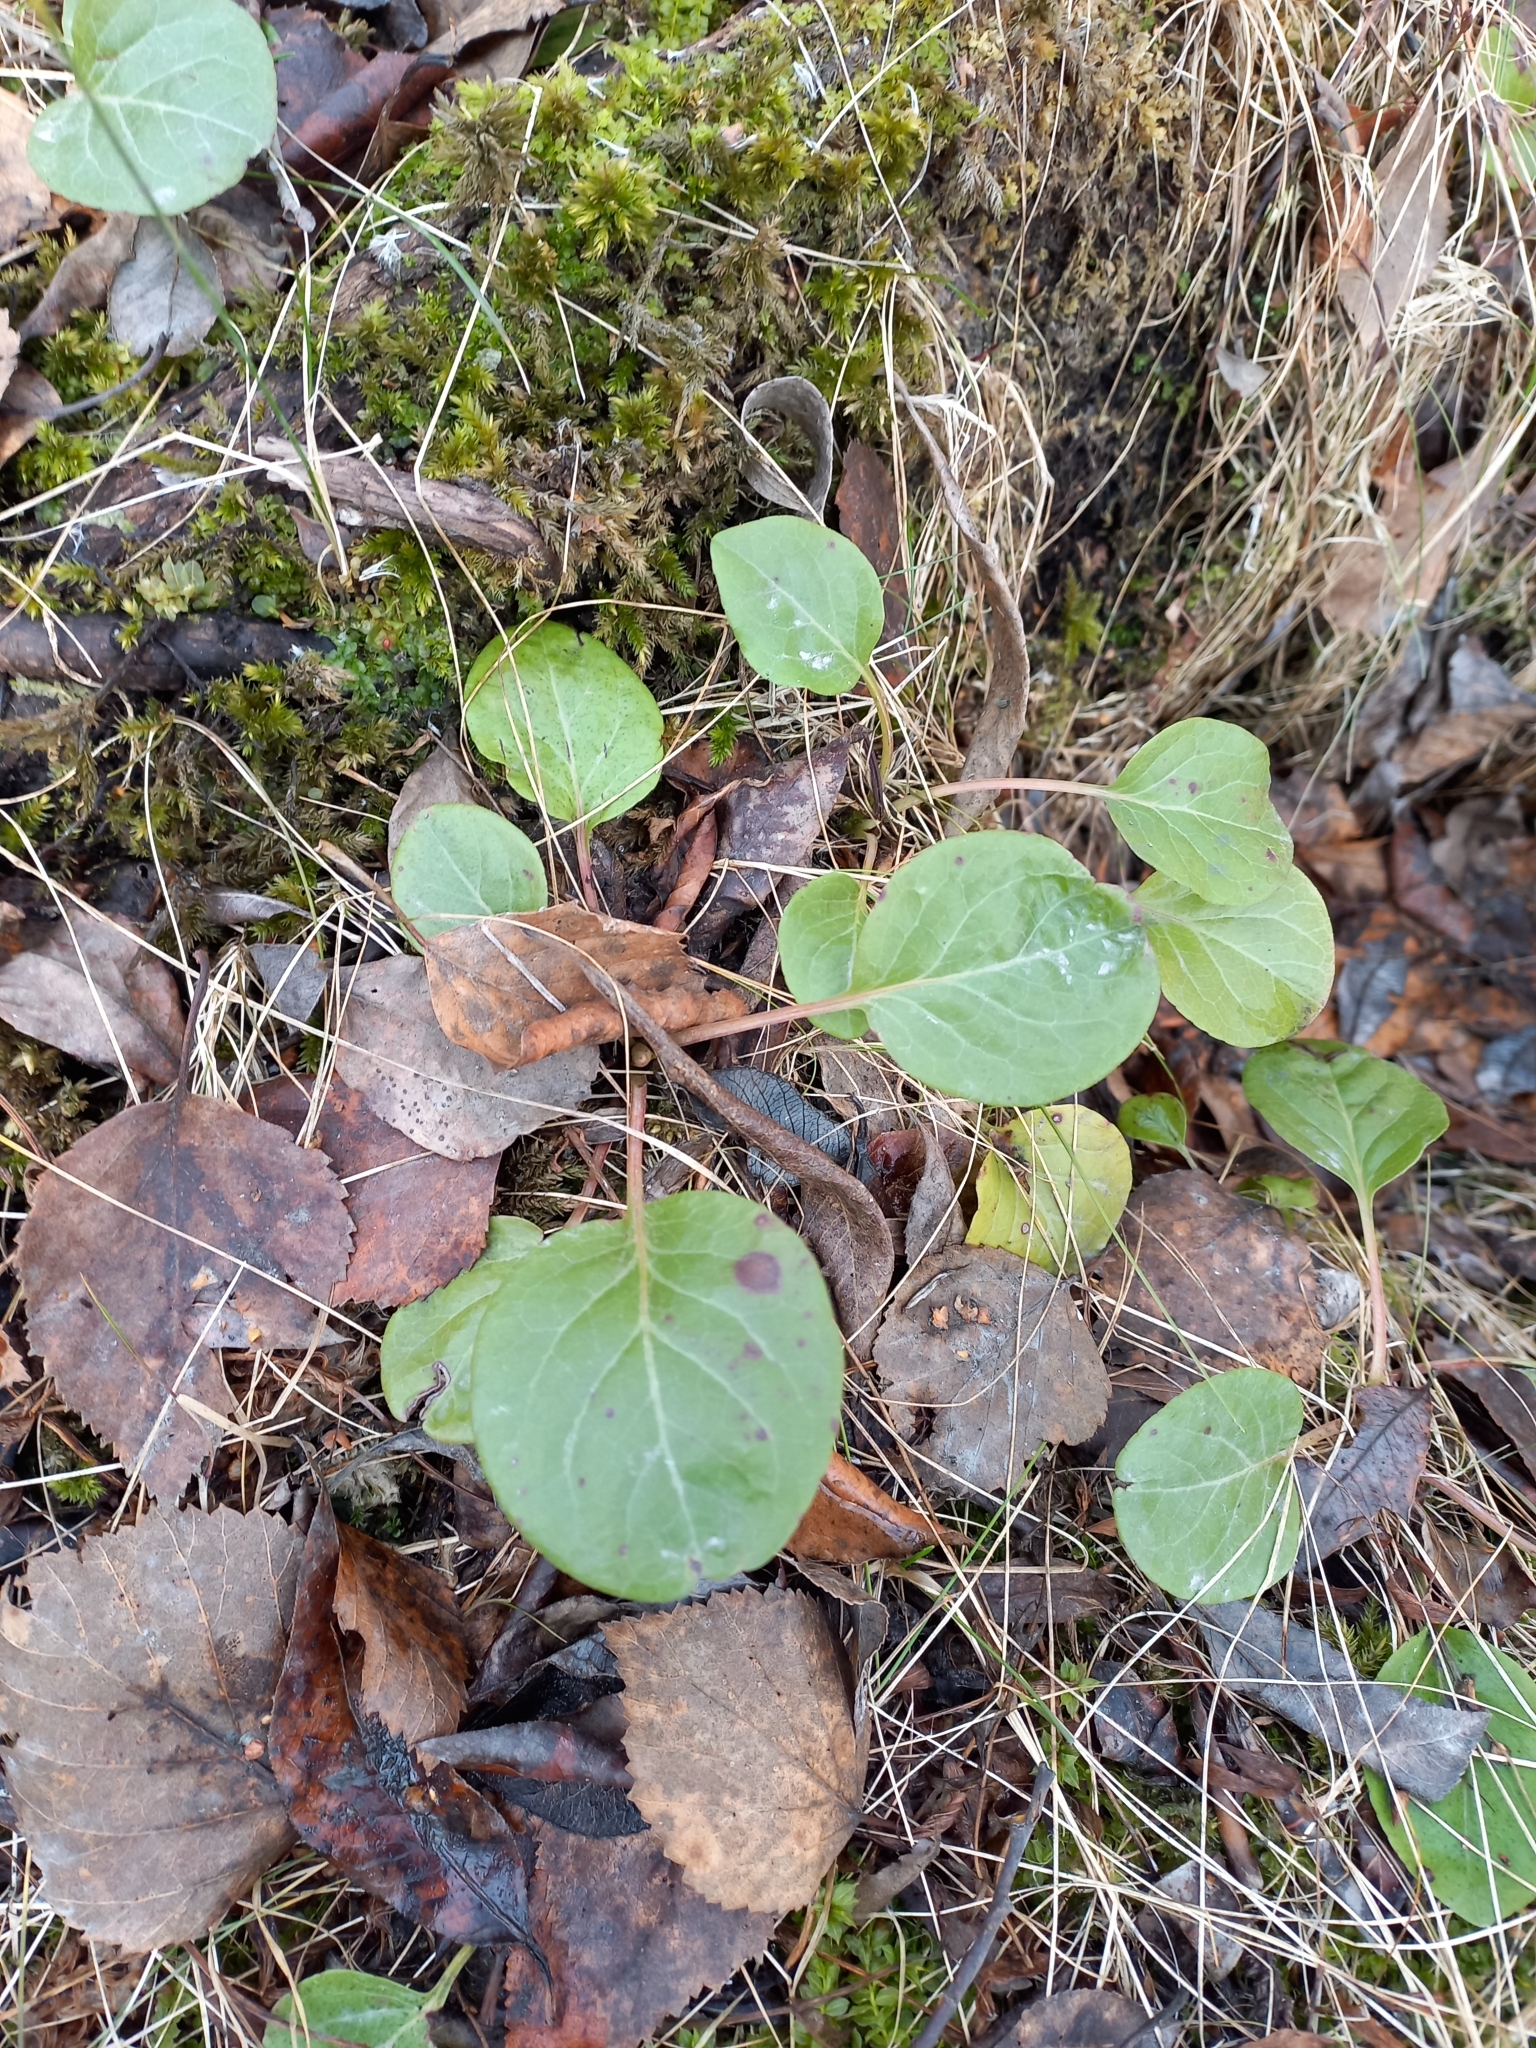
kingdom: Plantae
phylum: Tracheophyta
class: Magnoliopsida
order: Ericales
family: Ericaceae
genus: Pyrola
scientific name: Pyrola
